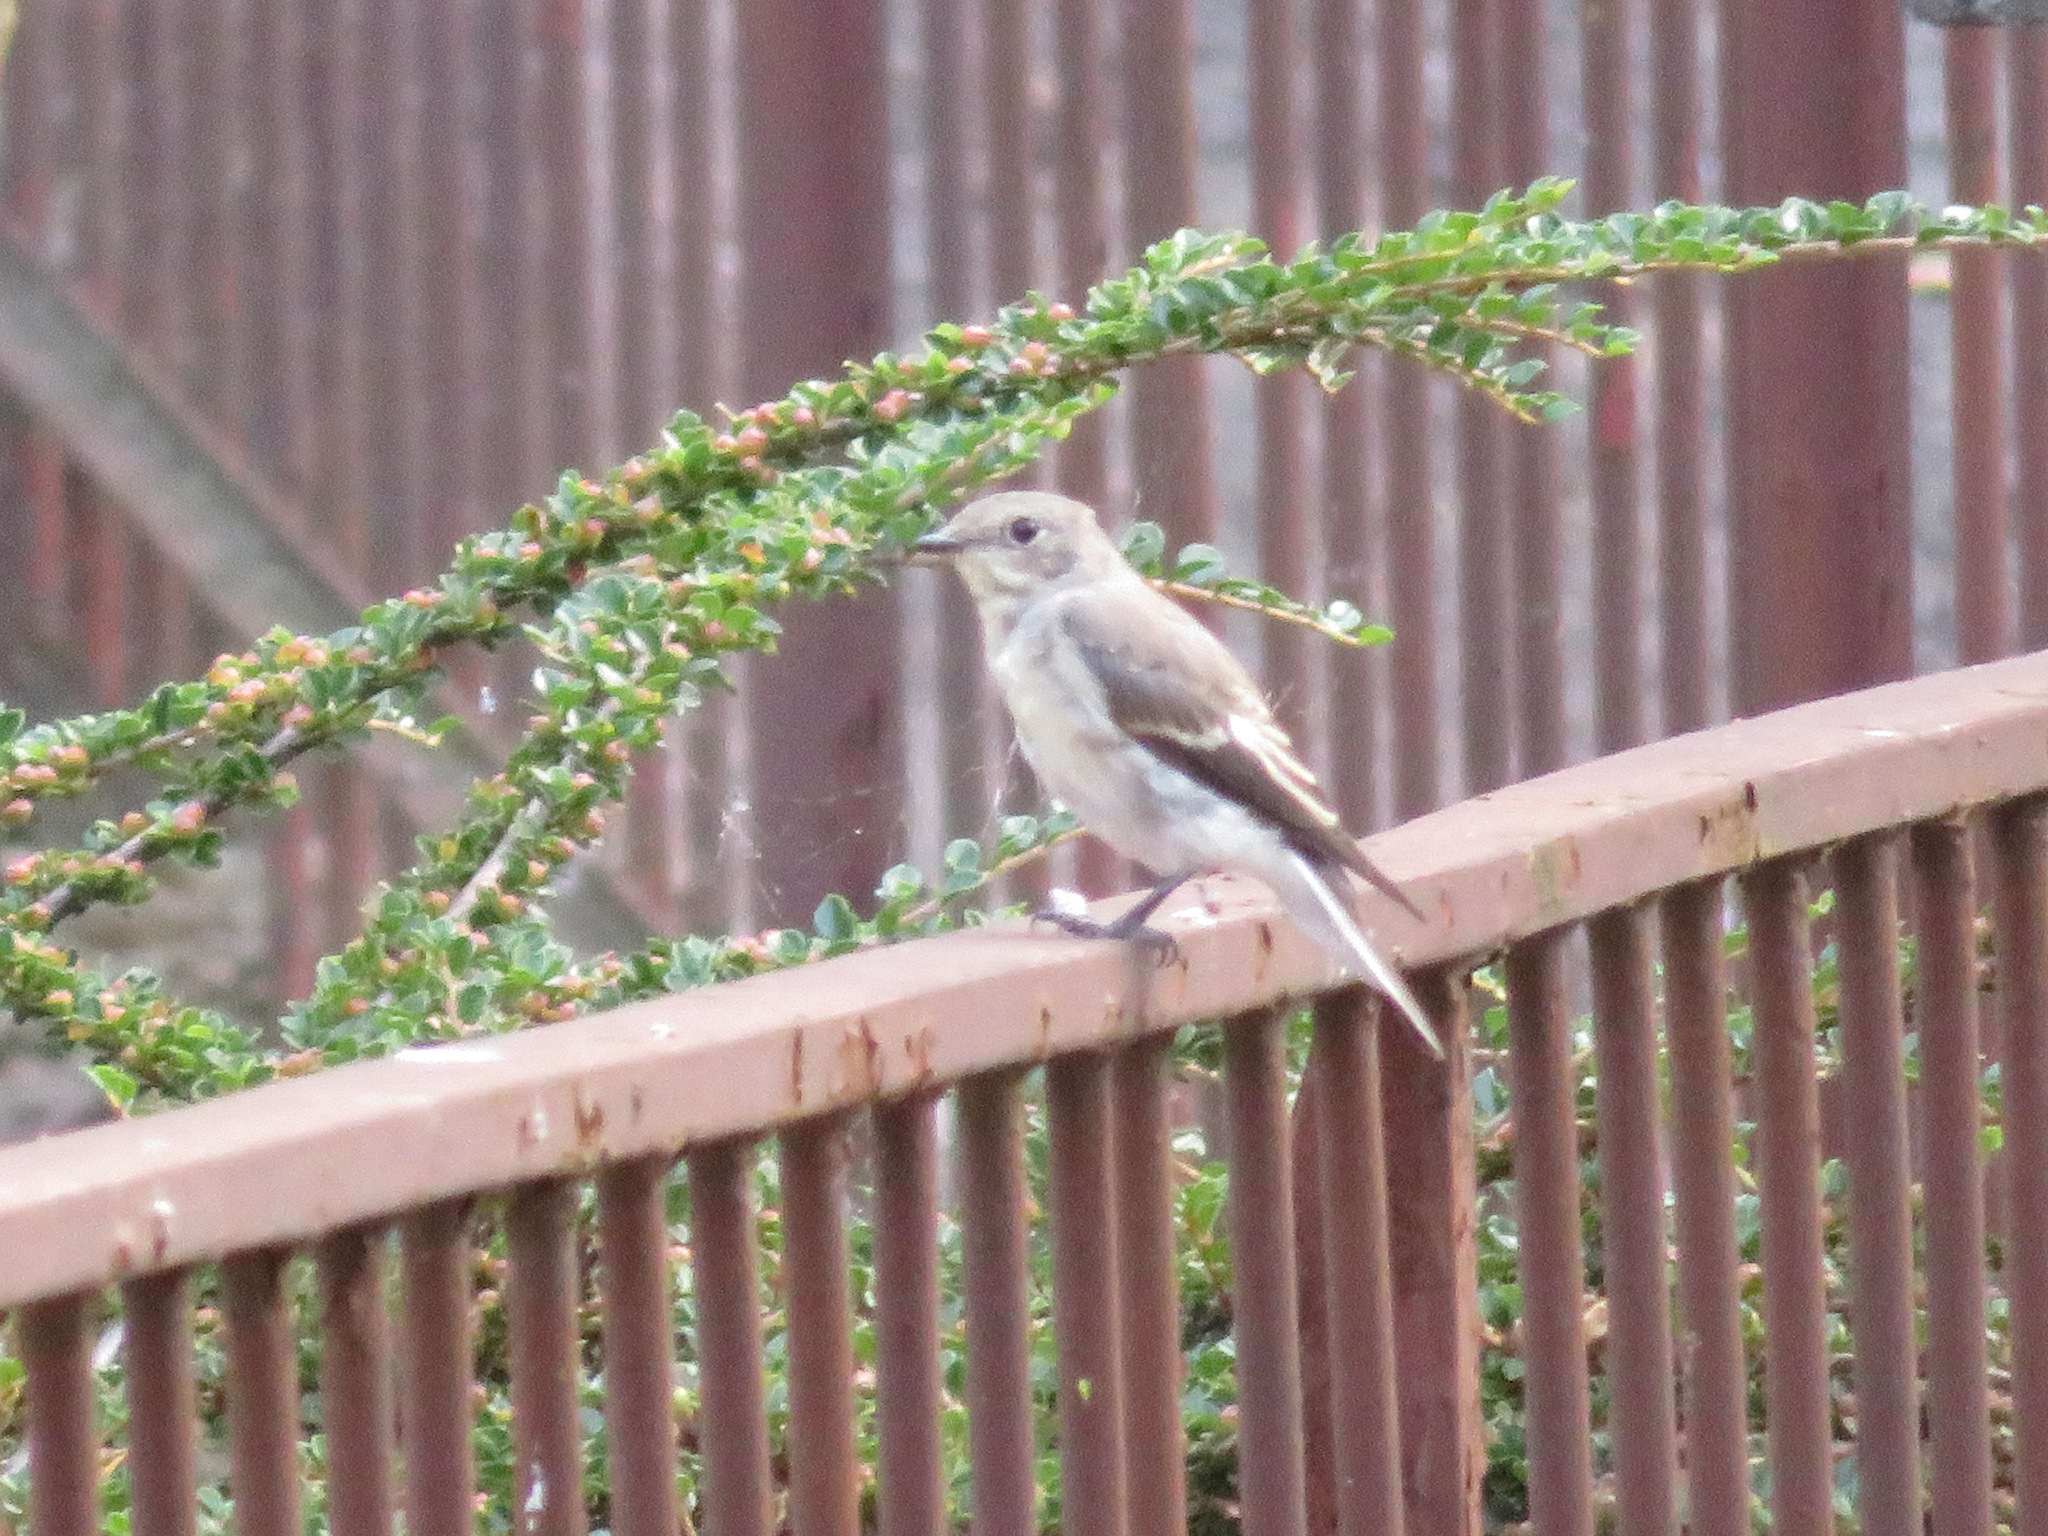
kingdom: Animalia
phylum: Chordata
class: Aves
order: Passeriformes
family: Muscicapidae
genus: Muscicapa
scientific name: Muscicapa striata
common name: Spotted flycatcher
